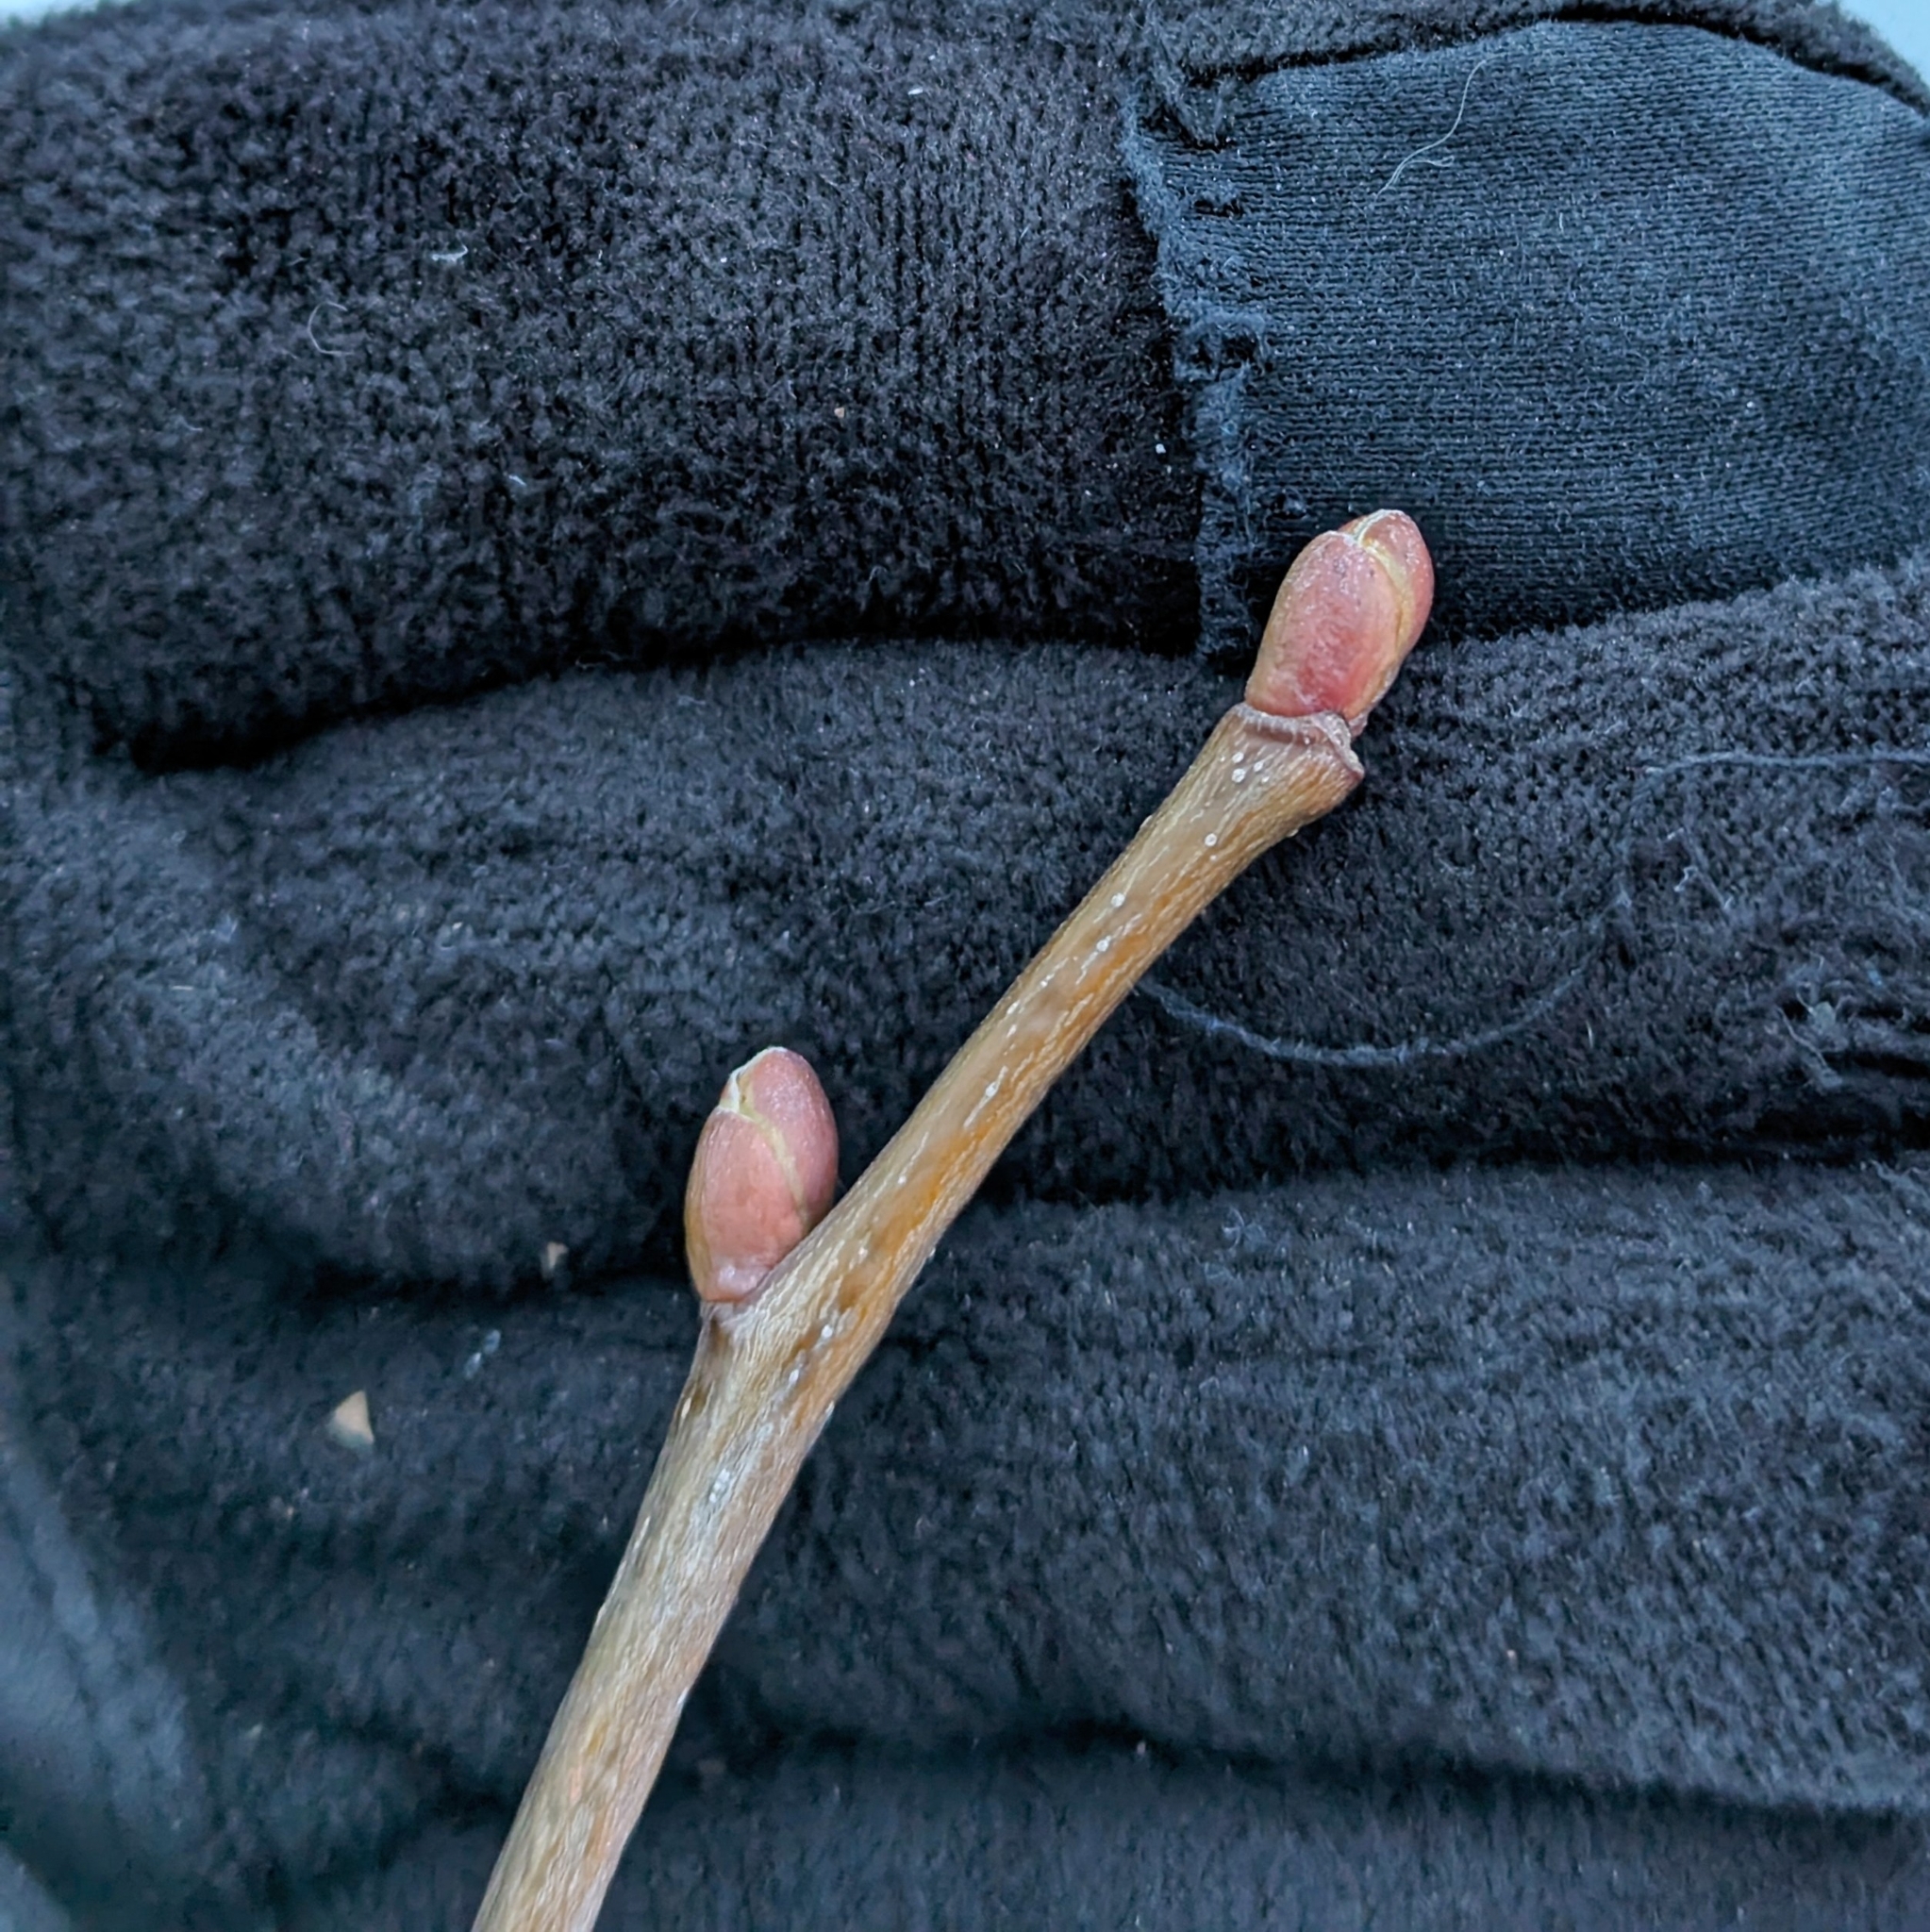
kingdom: Plantae
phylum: Tracheophyta
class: Magnoliopsida
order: Malvales
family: Malvaceae
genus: Tilia
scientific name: Tilia americana
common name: Basswood
